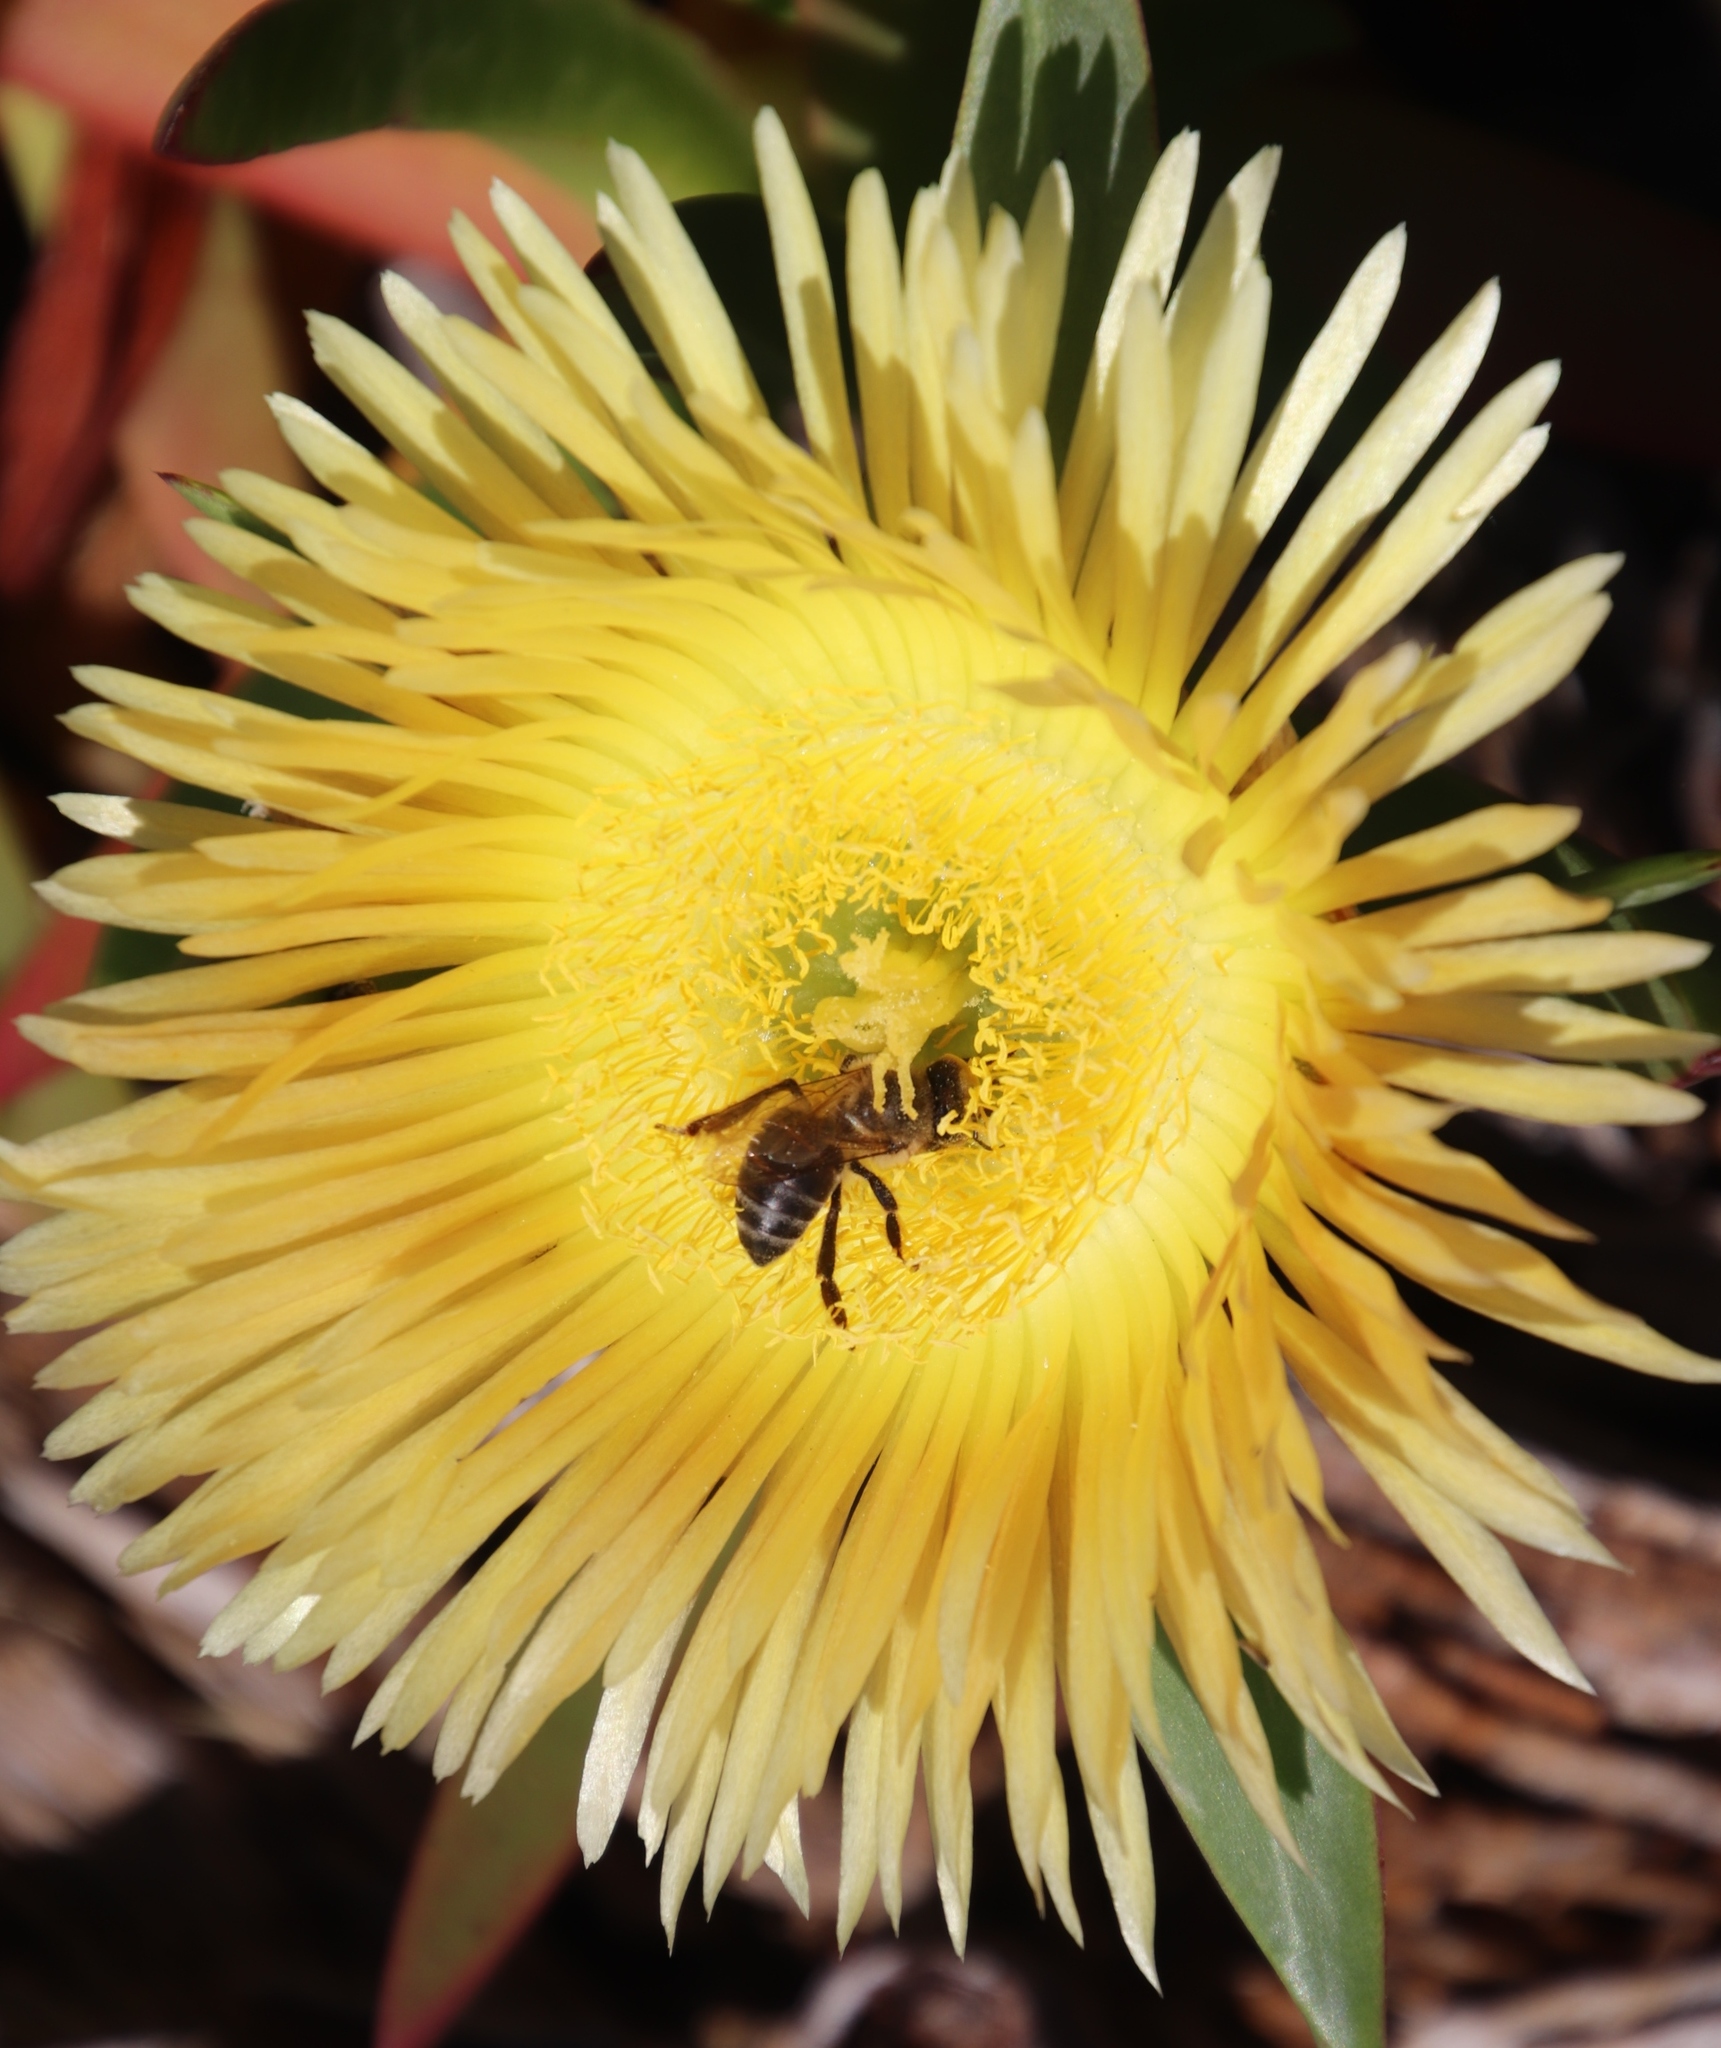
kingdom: Animalia
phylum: Arthropoda
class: Insecta
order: Hymenoptera
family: Apidae
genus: Apis
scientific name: Apis mellifera
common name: Honey bee
